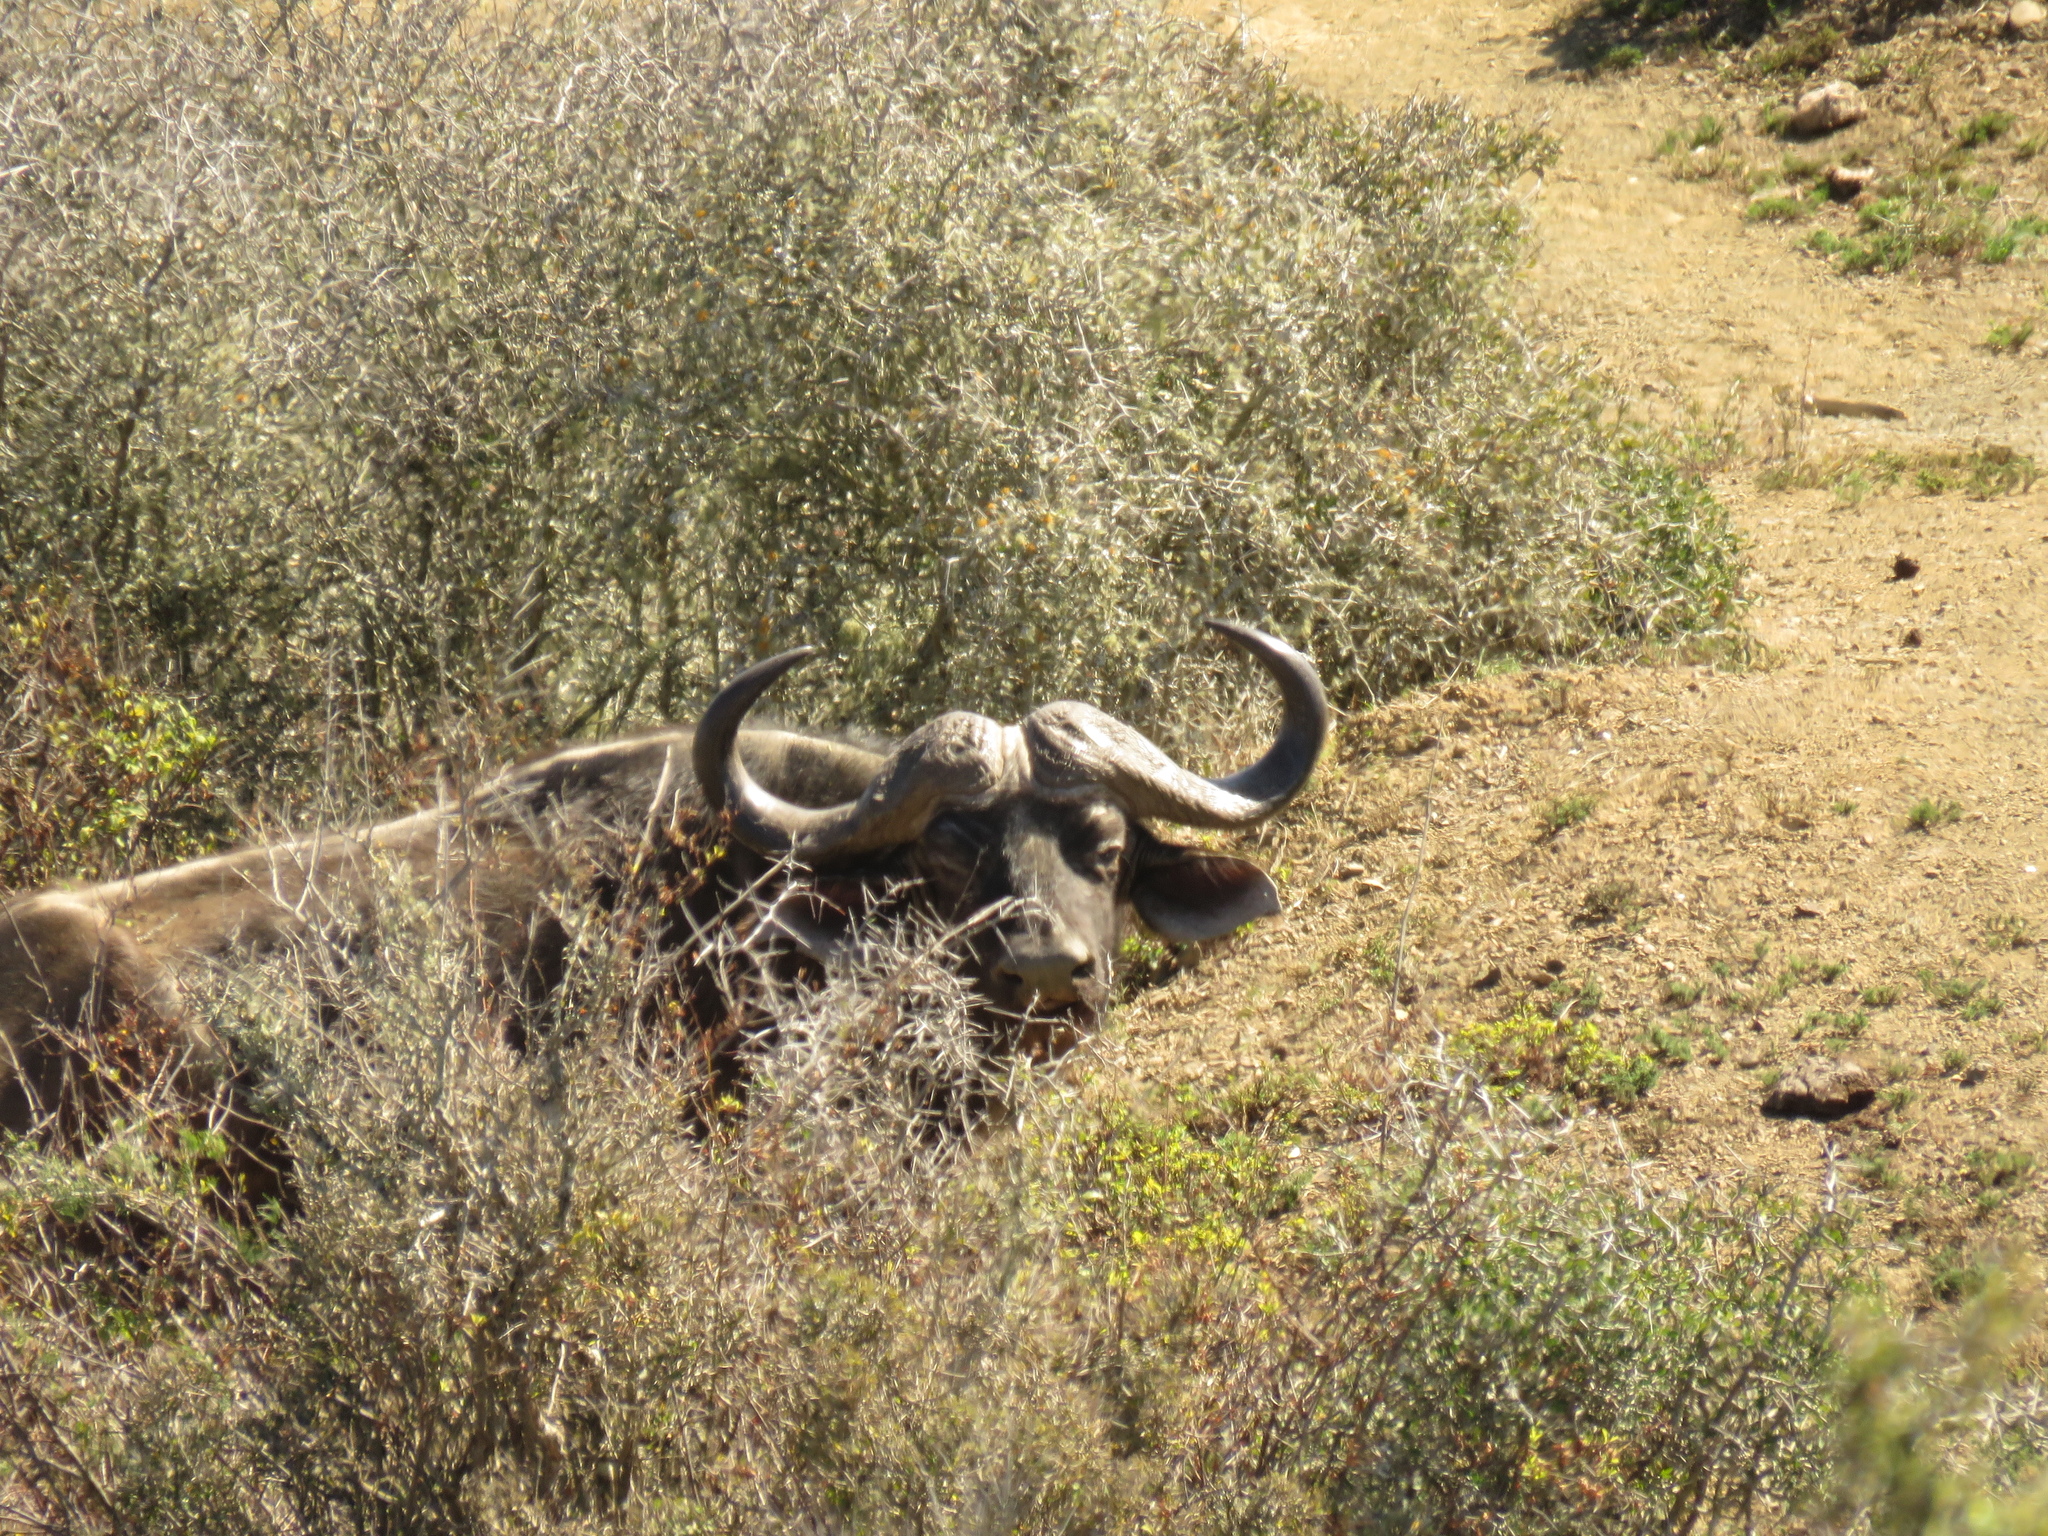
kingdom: Animalia
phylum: Chordata
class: Mammalia
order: Artiodactyla
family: Bovidae
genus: Syncerus
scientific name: Syncerus caffer
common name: African buffalo
